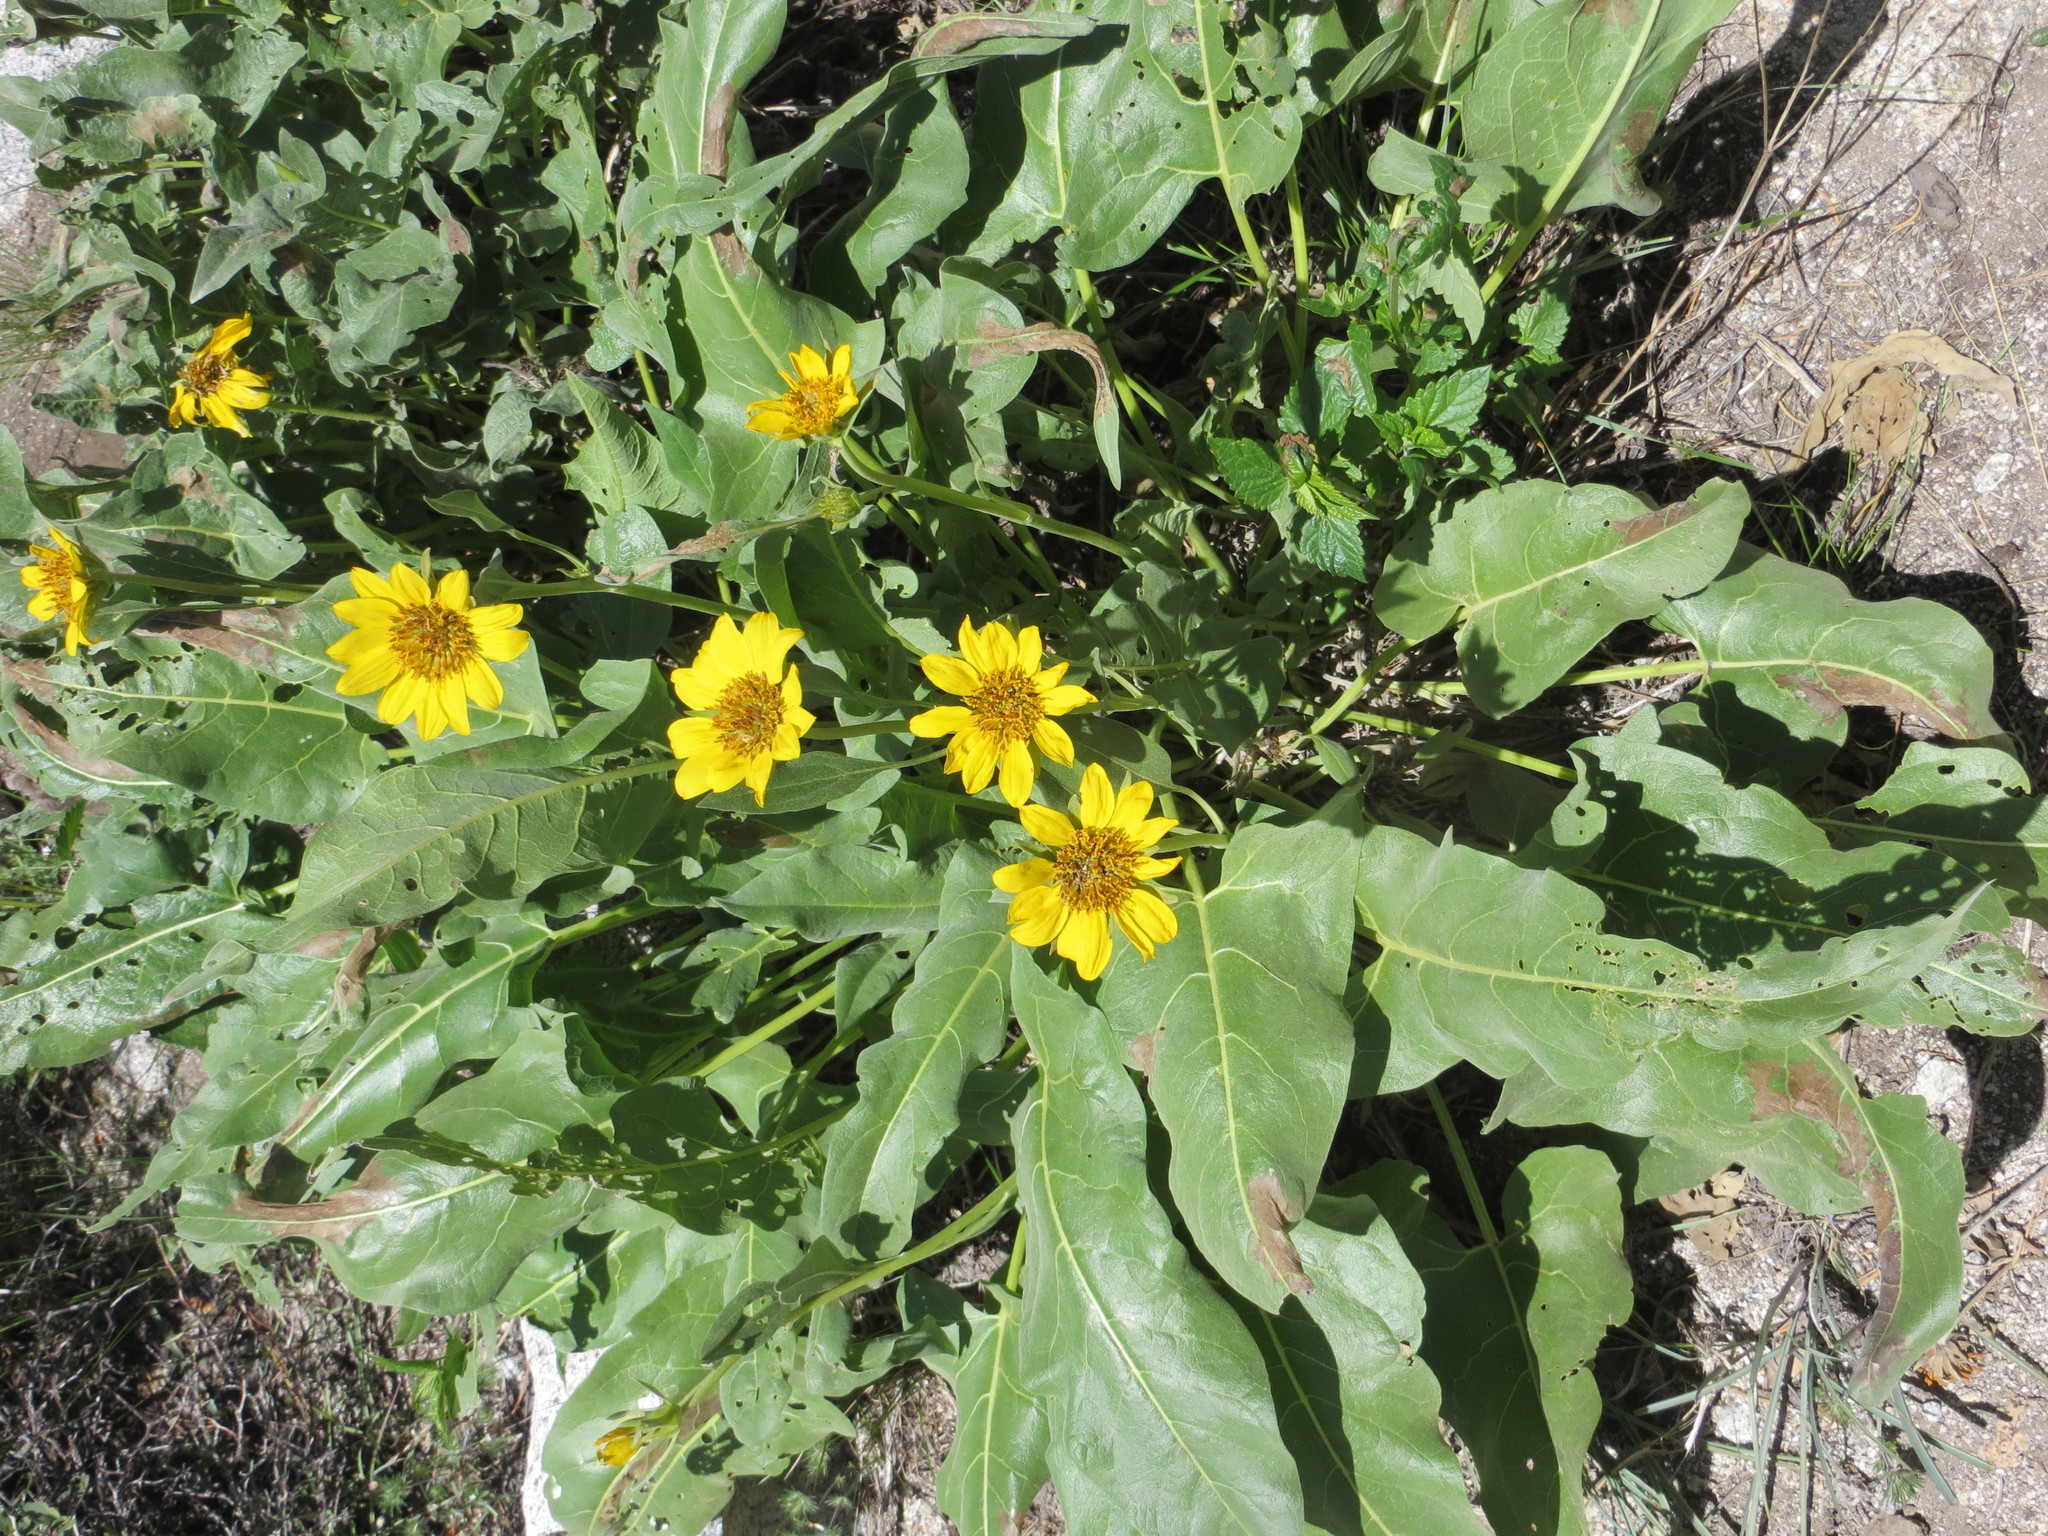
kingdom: Plantae
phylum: Tracheophyta
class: Magnoliopsida
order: Asterales
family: Asteraceae
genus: Wyethia
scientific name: Wyethia sagittata
